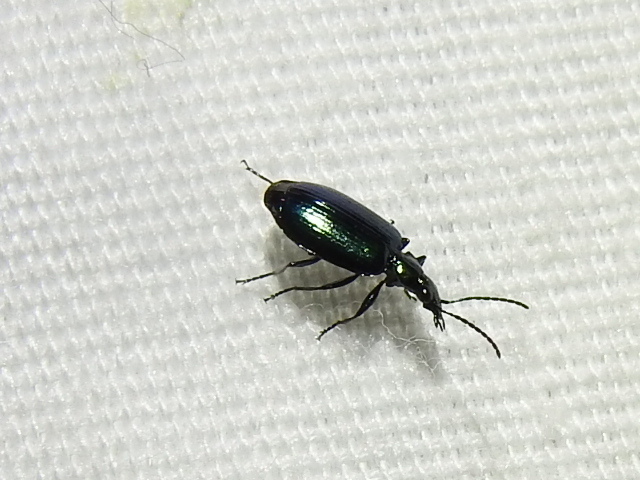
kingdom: Animalia
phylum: Arthropoda
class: Insecta
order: Coleoptera
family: Carabidae
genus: Lebia
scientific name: Lebia viridis
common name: Flower lebia beetle
